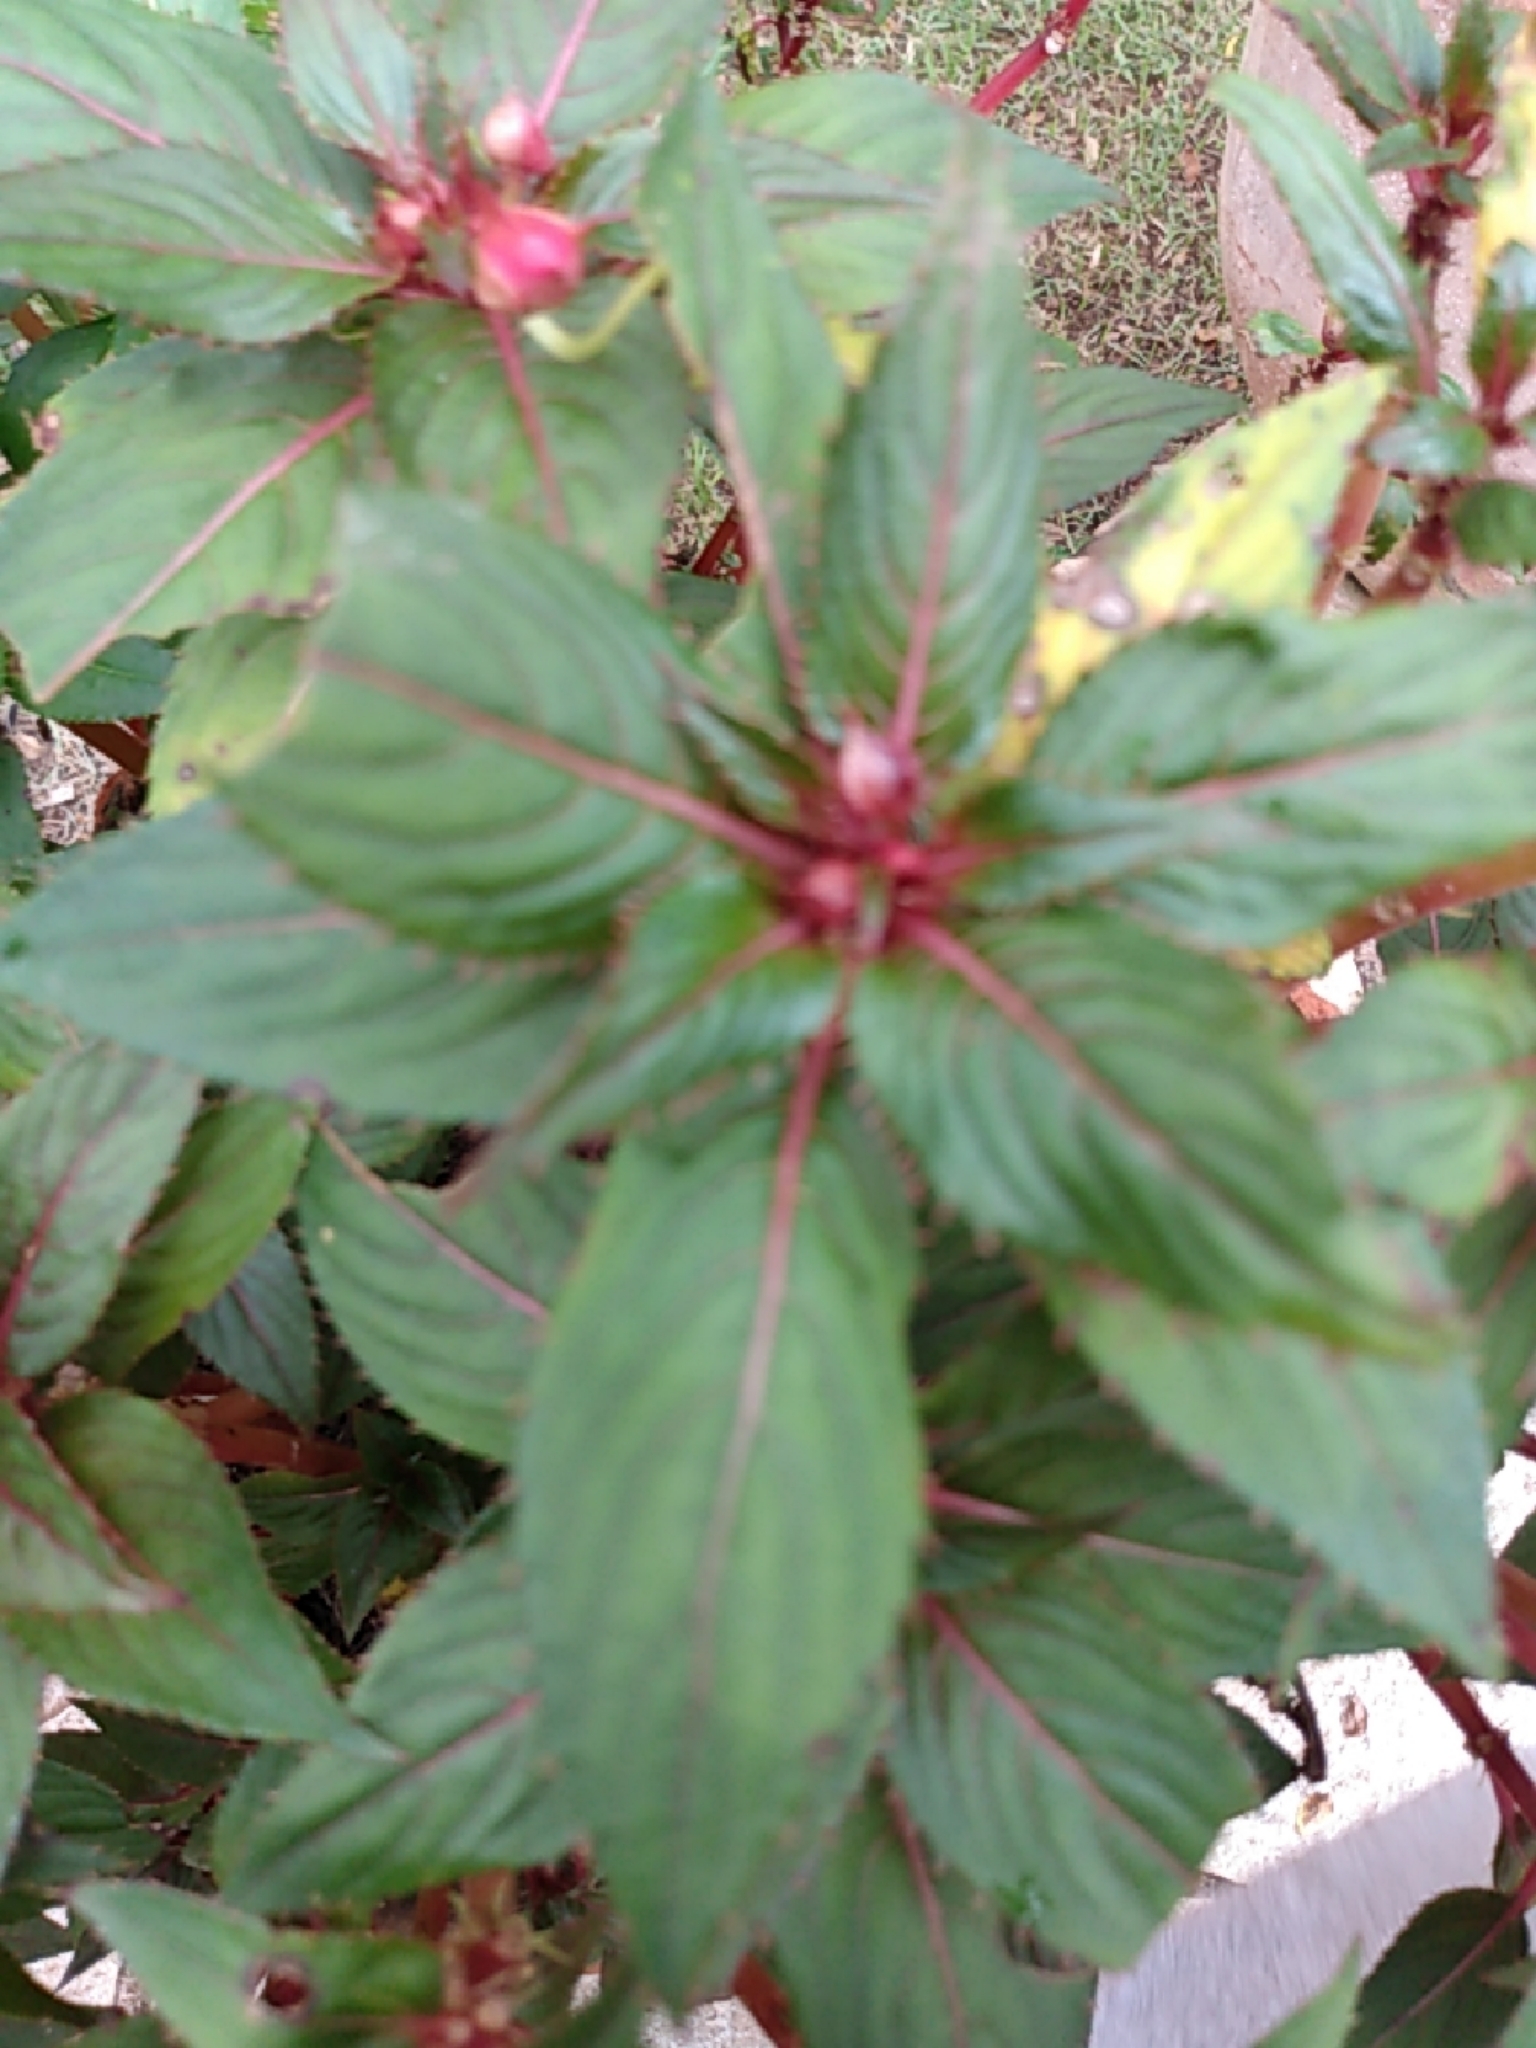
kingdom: Plantae
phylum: Tracheophyta
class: Magnoliopsida
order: Ericales
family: Balsaminaceae
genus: Impatiens
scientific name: Impatiens hawkeri
